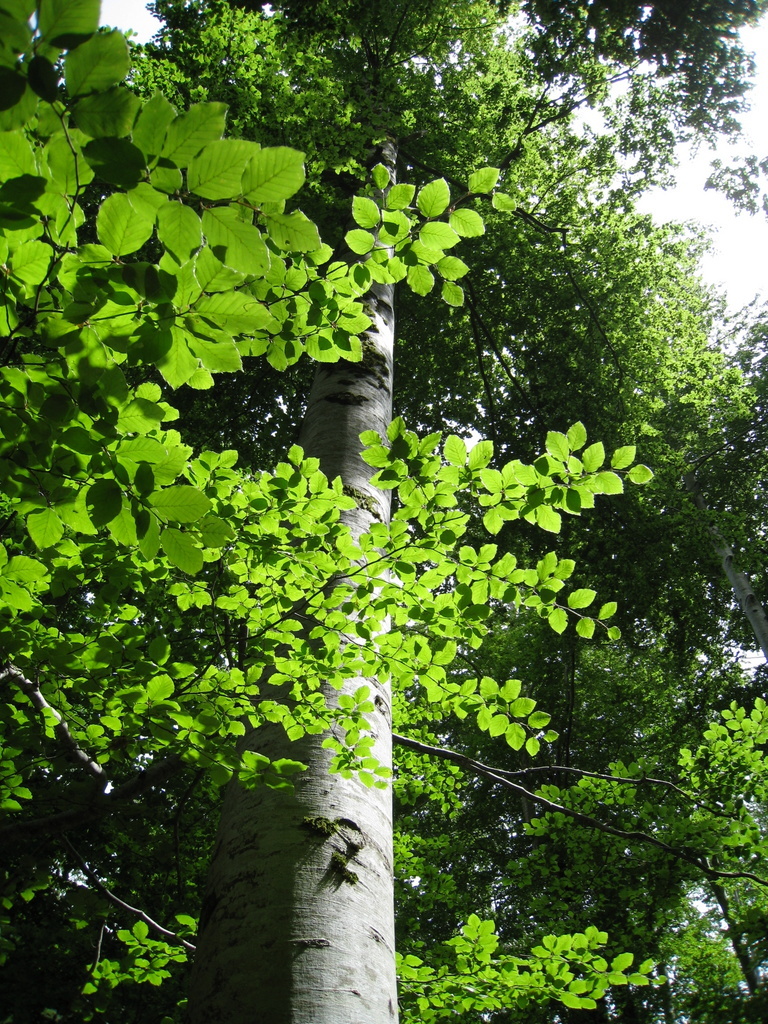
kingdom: Plantae
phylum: Tracheophyta
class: Magnoliopsida
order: Fagales
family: Fagaceae
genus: Fagus
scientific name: Fagus sylvatica
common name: Beech
